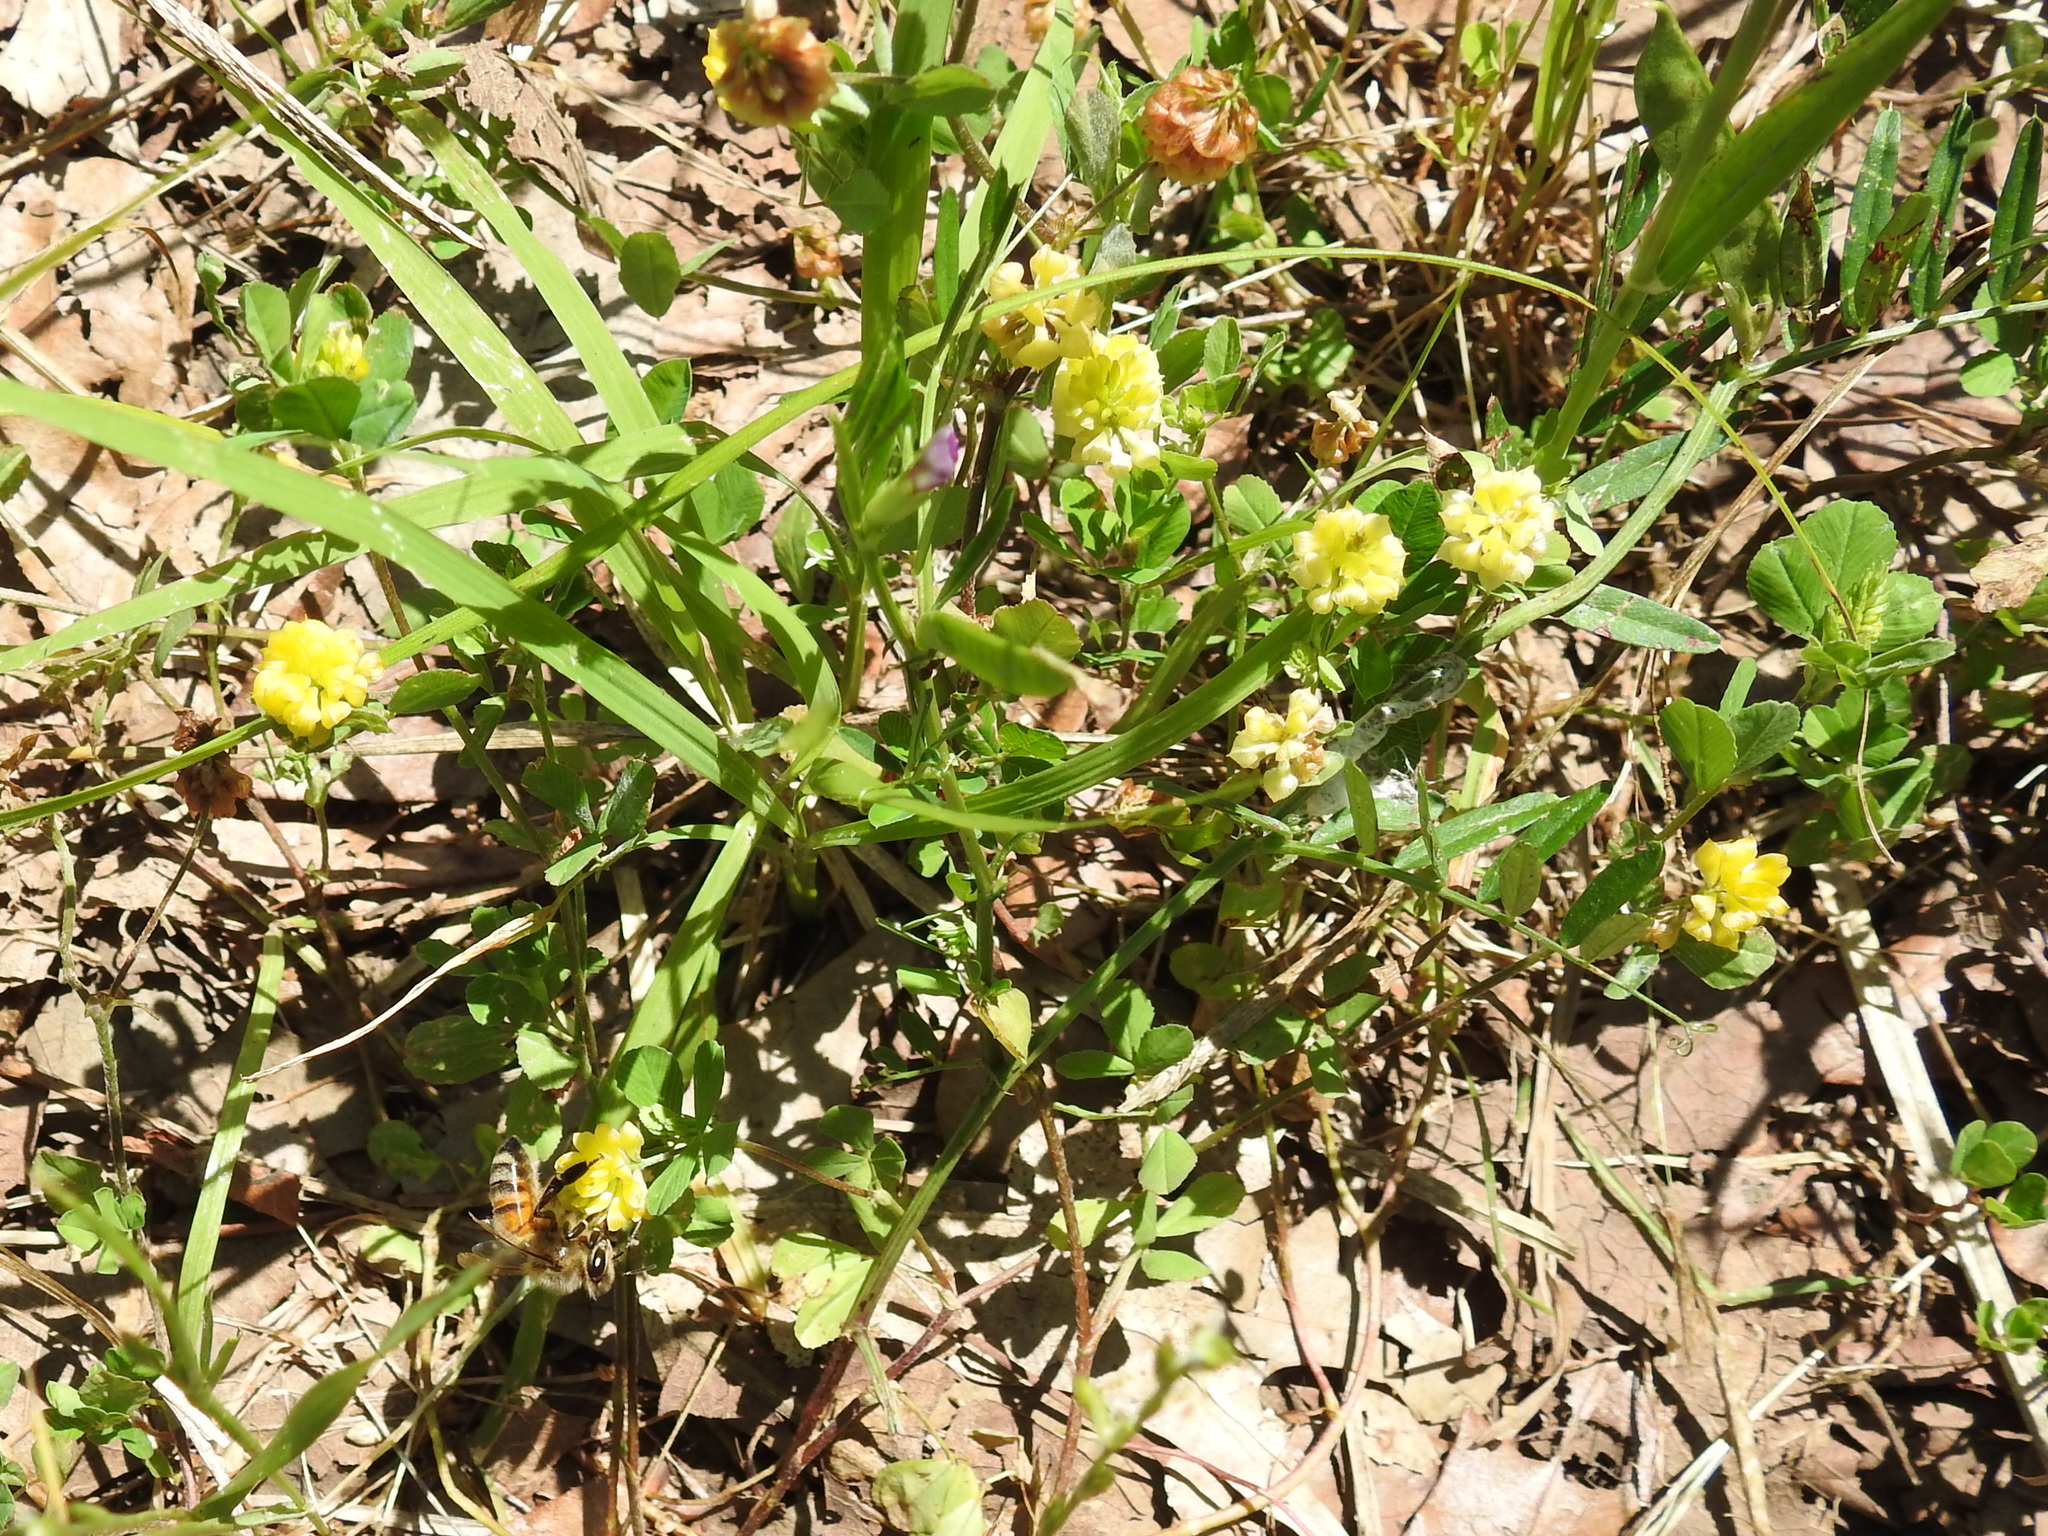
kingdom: Plantae
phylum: Tracheophyta
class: Magnoliopsida
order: Fabales
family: Fabaceae
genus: Trifolium
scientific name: Trifolium campestre
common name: Field clover
